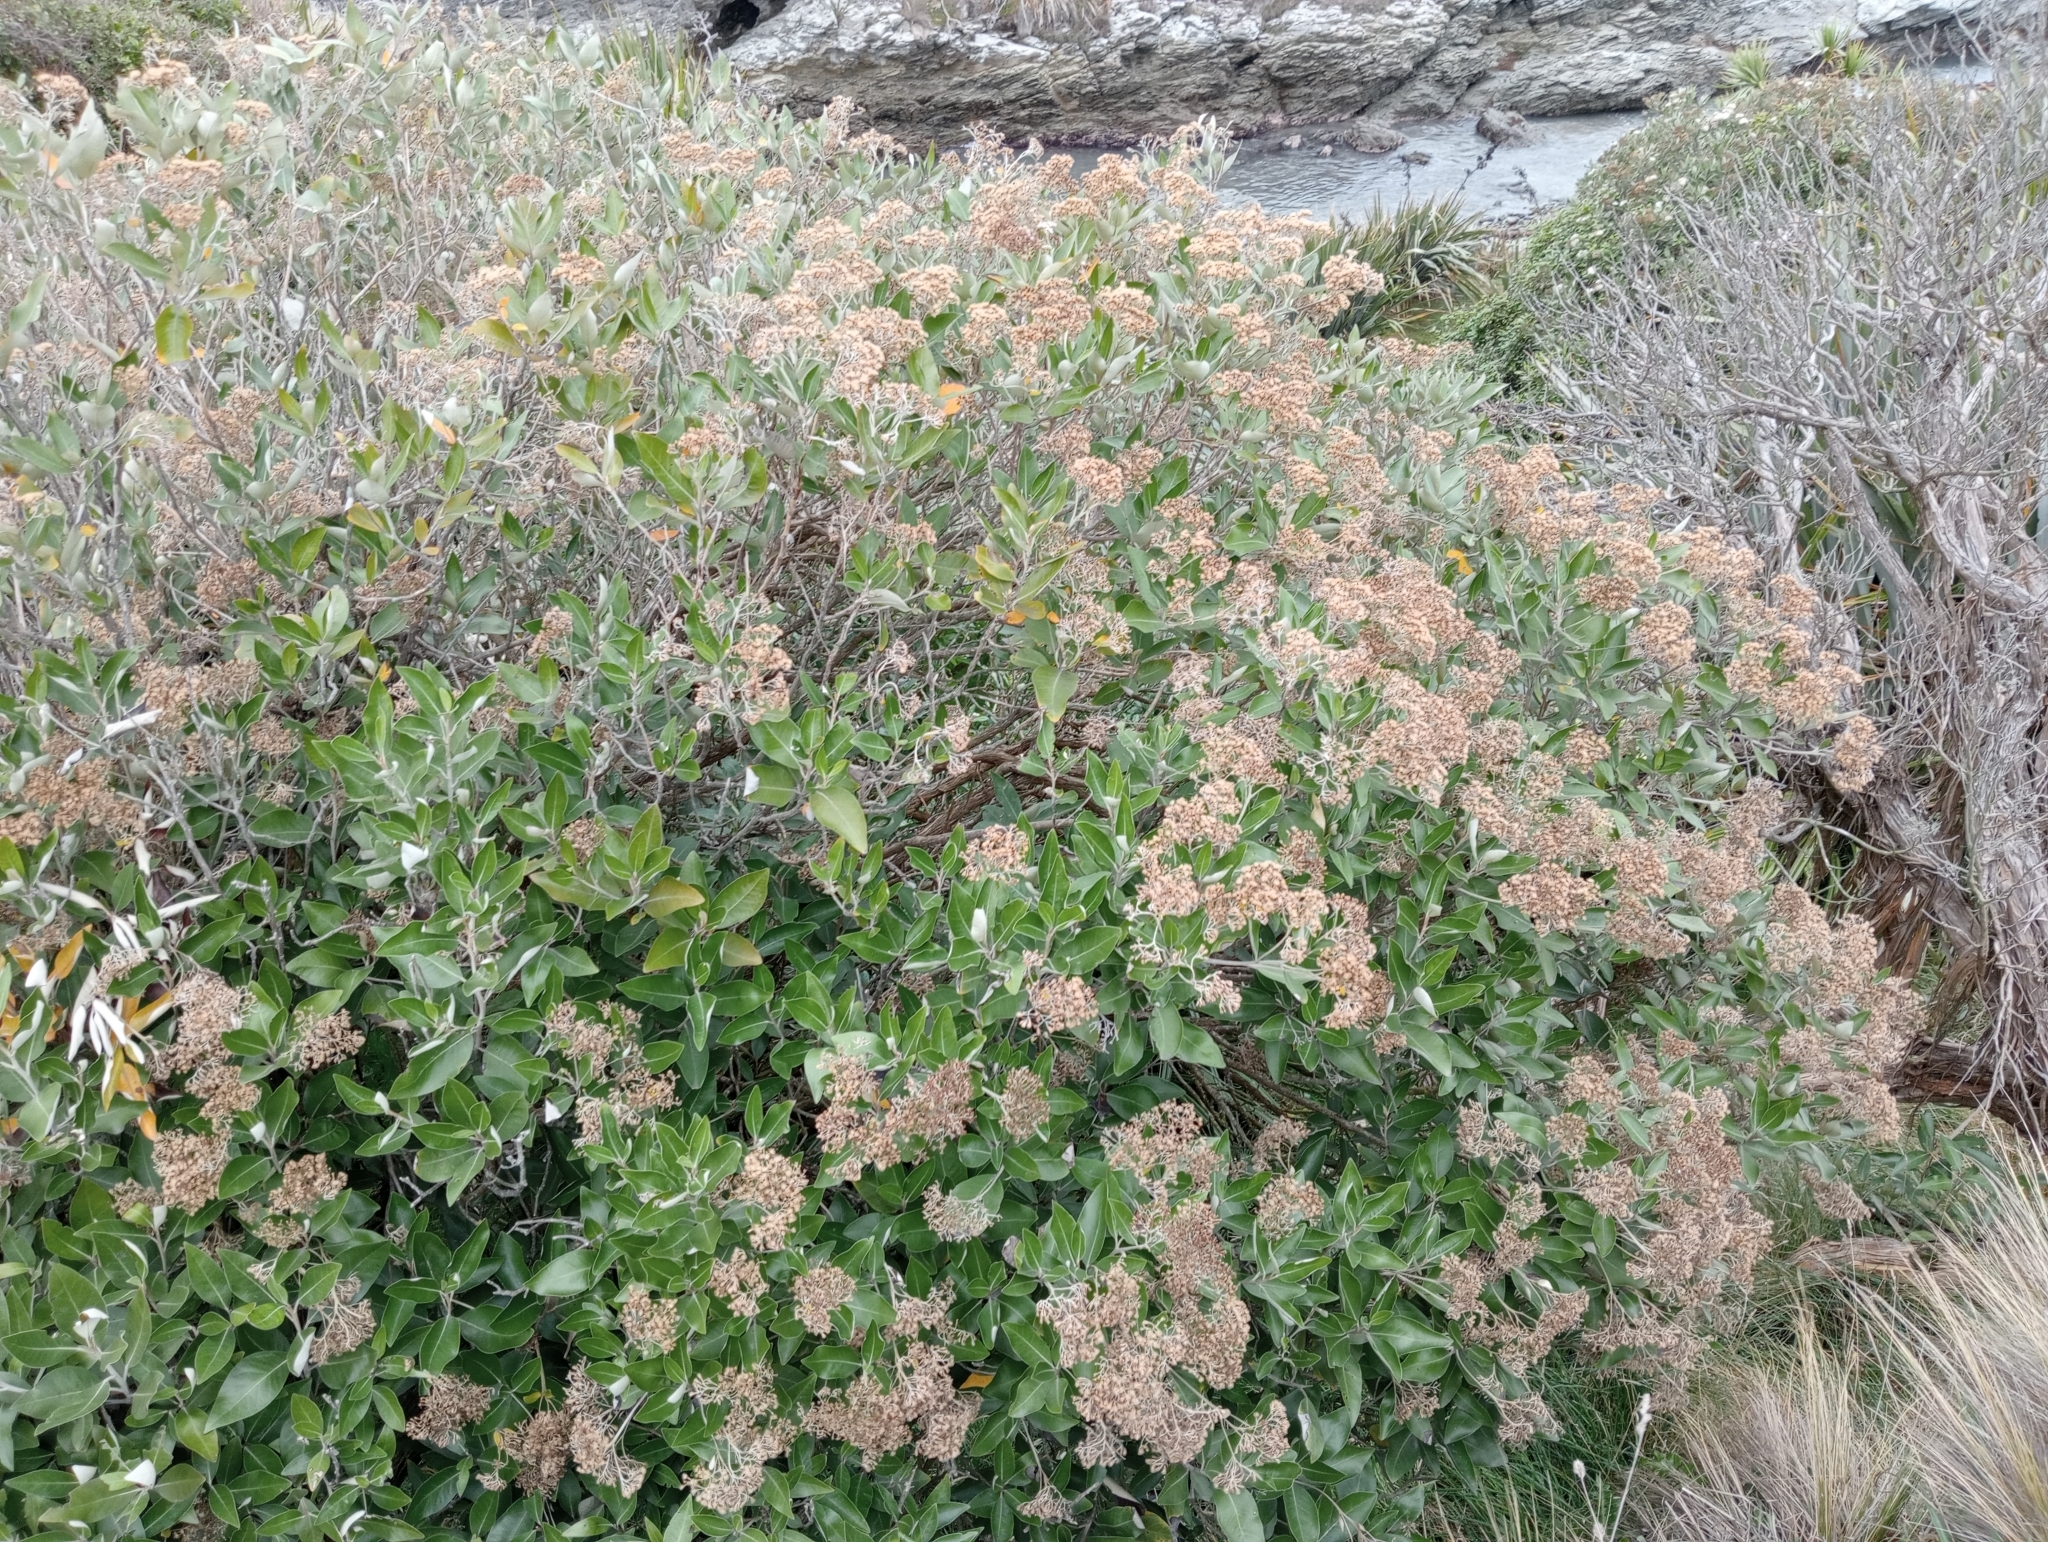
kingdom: Plantae
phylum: Tracheophyta
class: Magnoliopsida
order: Asterales
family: Asteraceae
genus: Olearia
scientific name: Olearia avicenniifolia
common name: Mangrove-leaf daisybush
